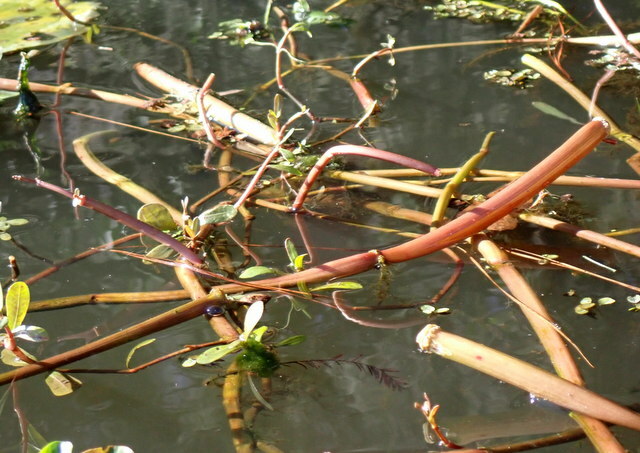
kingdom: Plantae
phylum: Tracheophyta
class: Magnoliopsida
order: Caryophyllales
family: Amaranthaceae
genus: Alternanthera
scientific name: Alternanthera philoxeroides
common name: Alligatorweed
